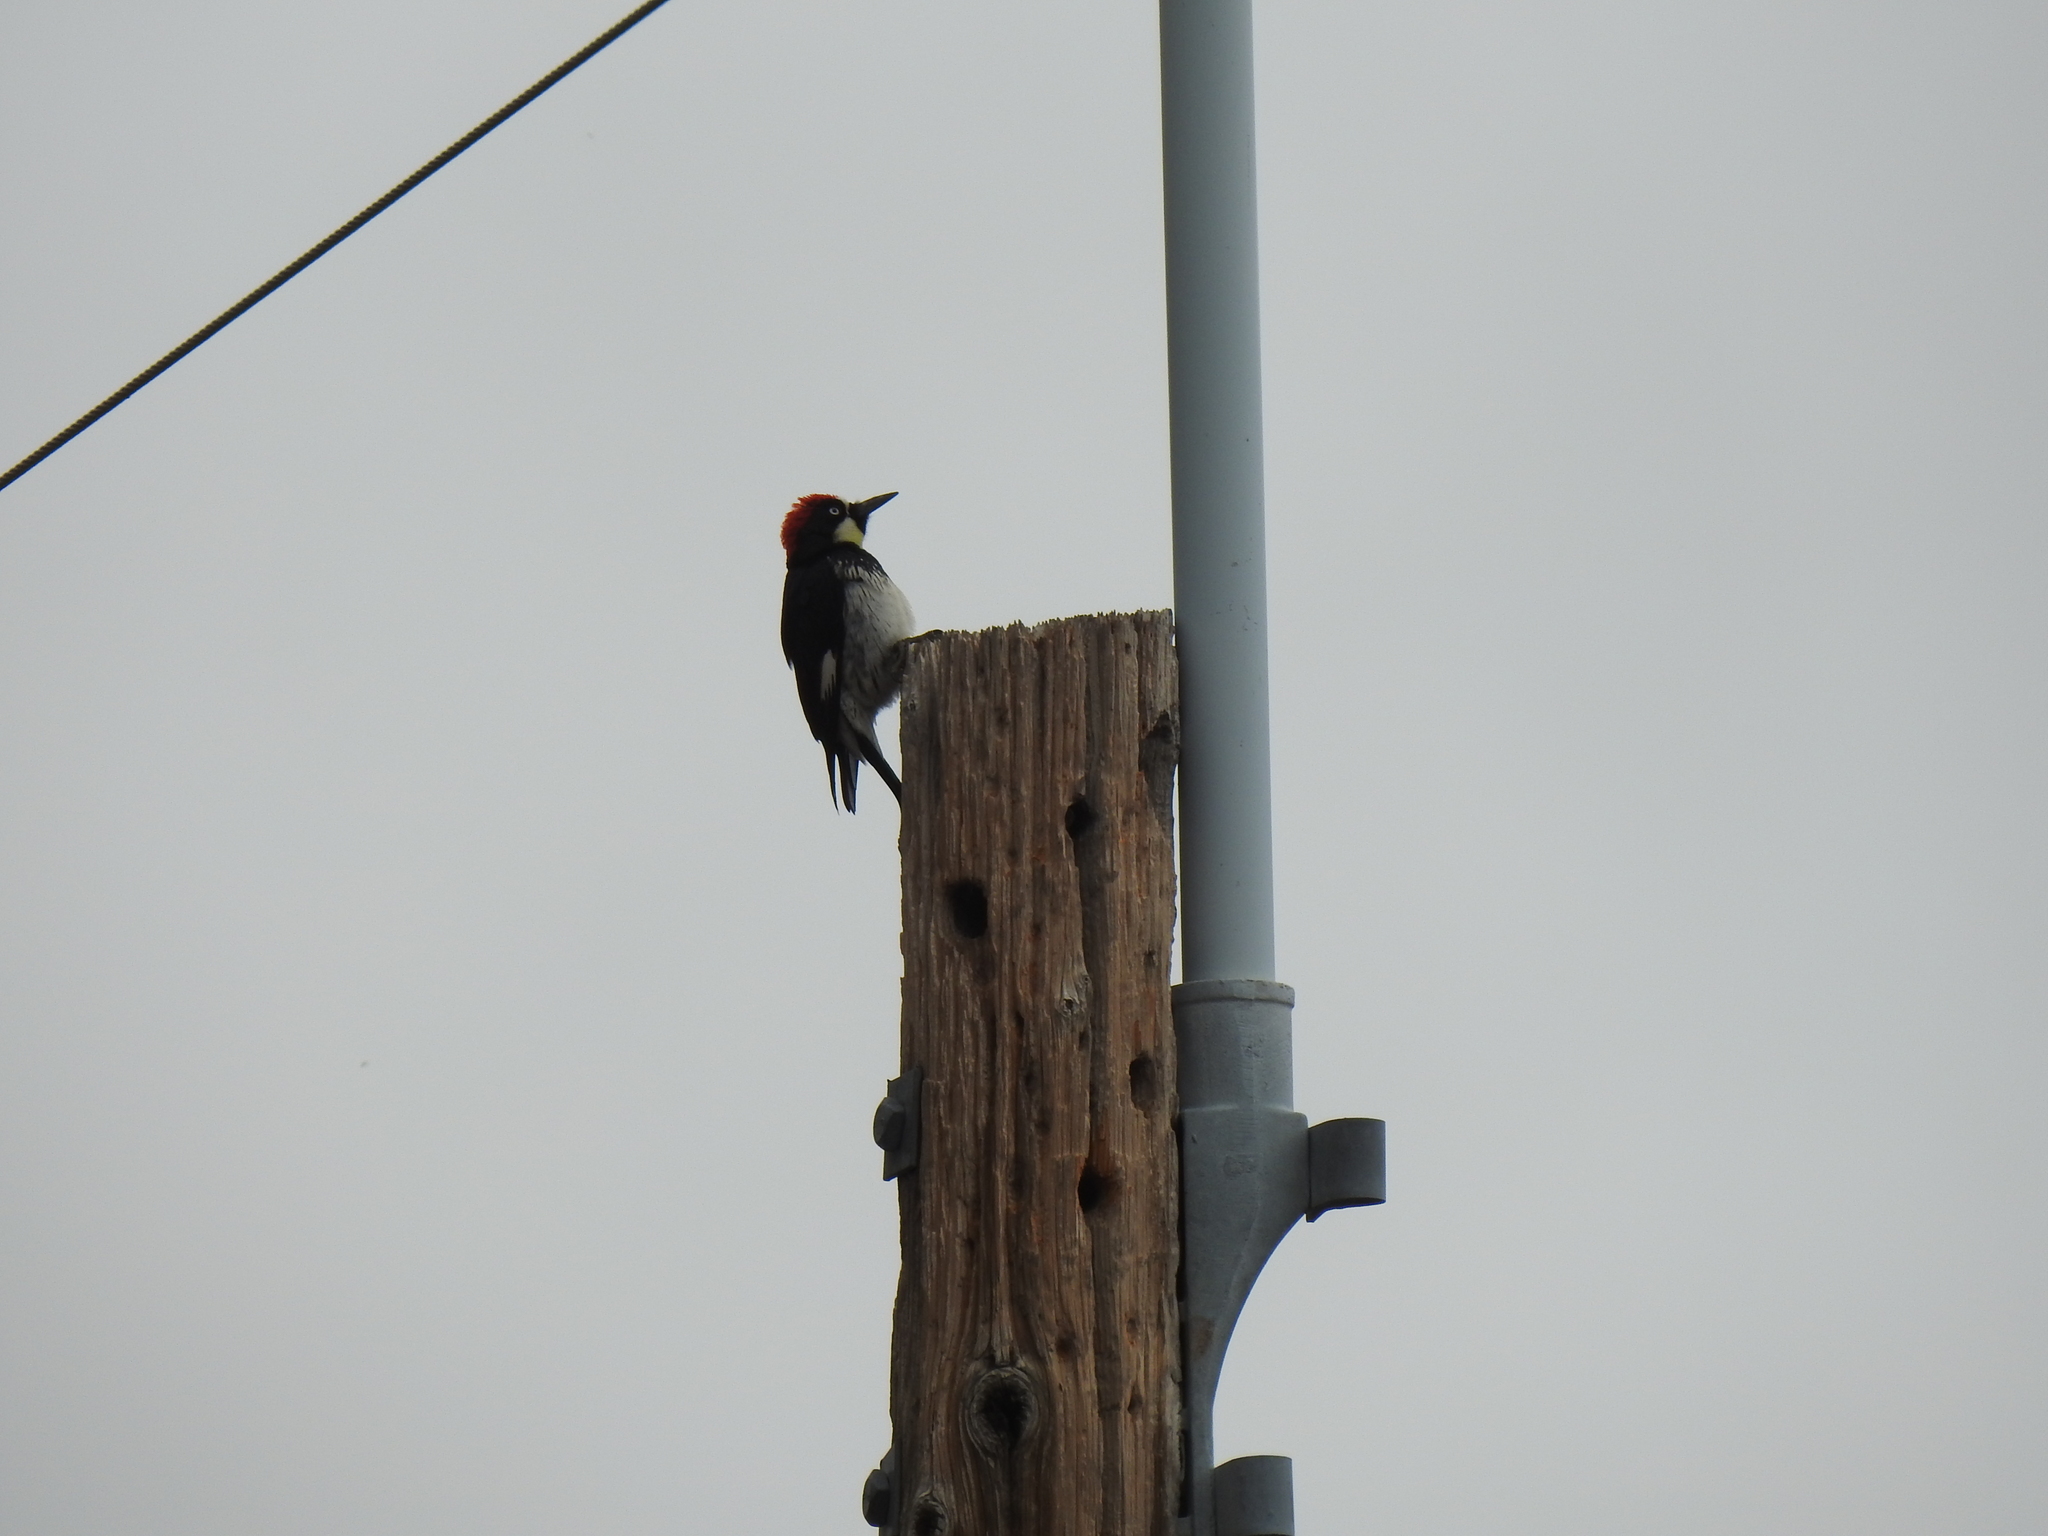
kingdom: Animalia
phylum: Chordata
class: Aves
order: Piciformes
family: Picidae
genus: Melanerpes
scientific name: Melanerpes formicivorus
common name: Acorn woodpecker
